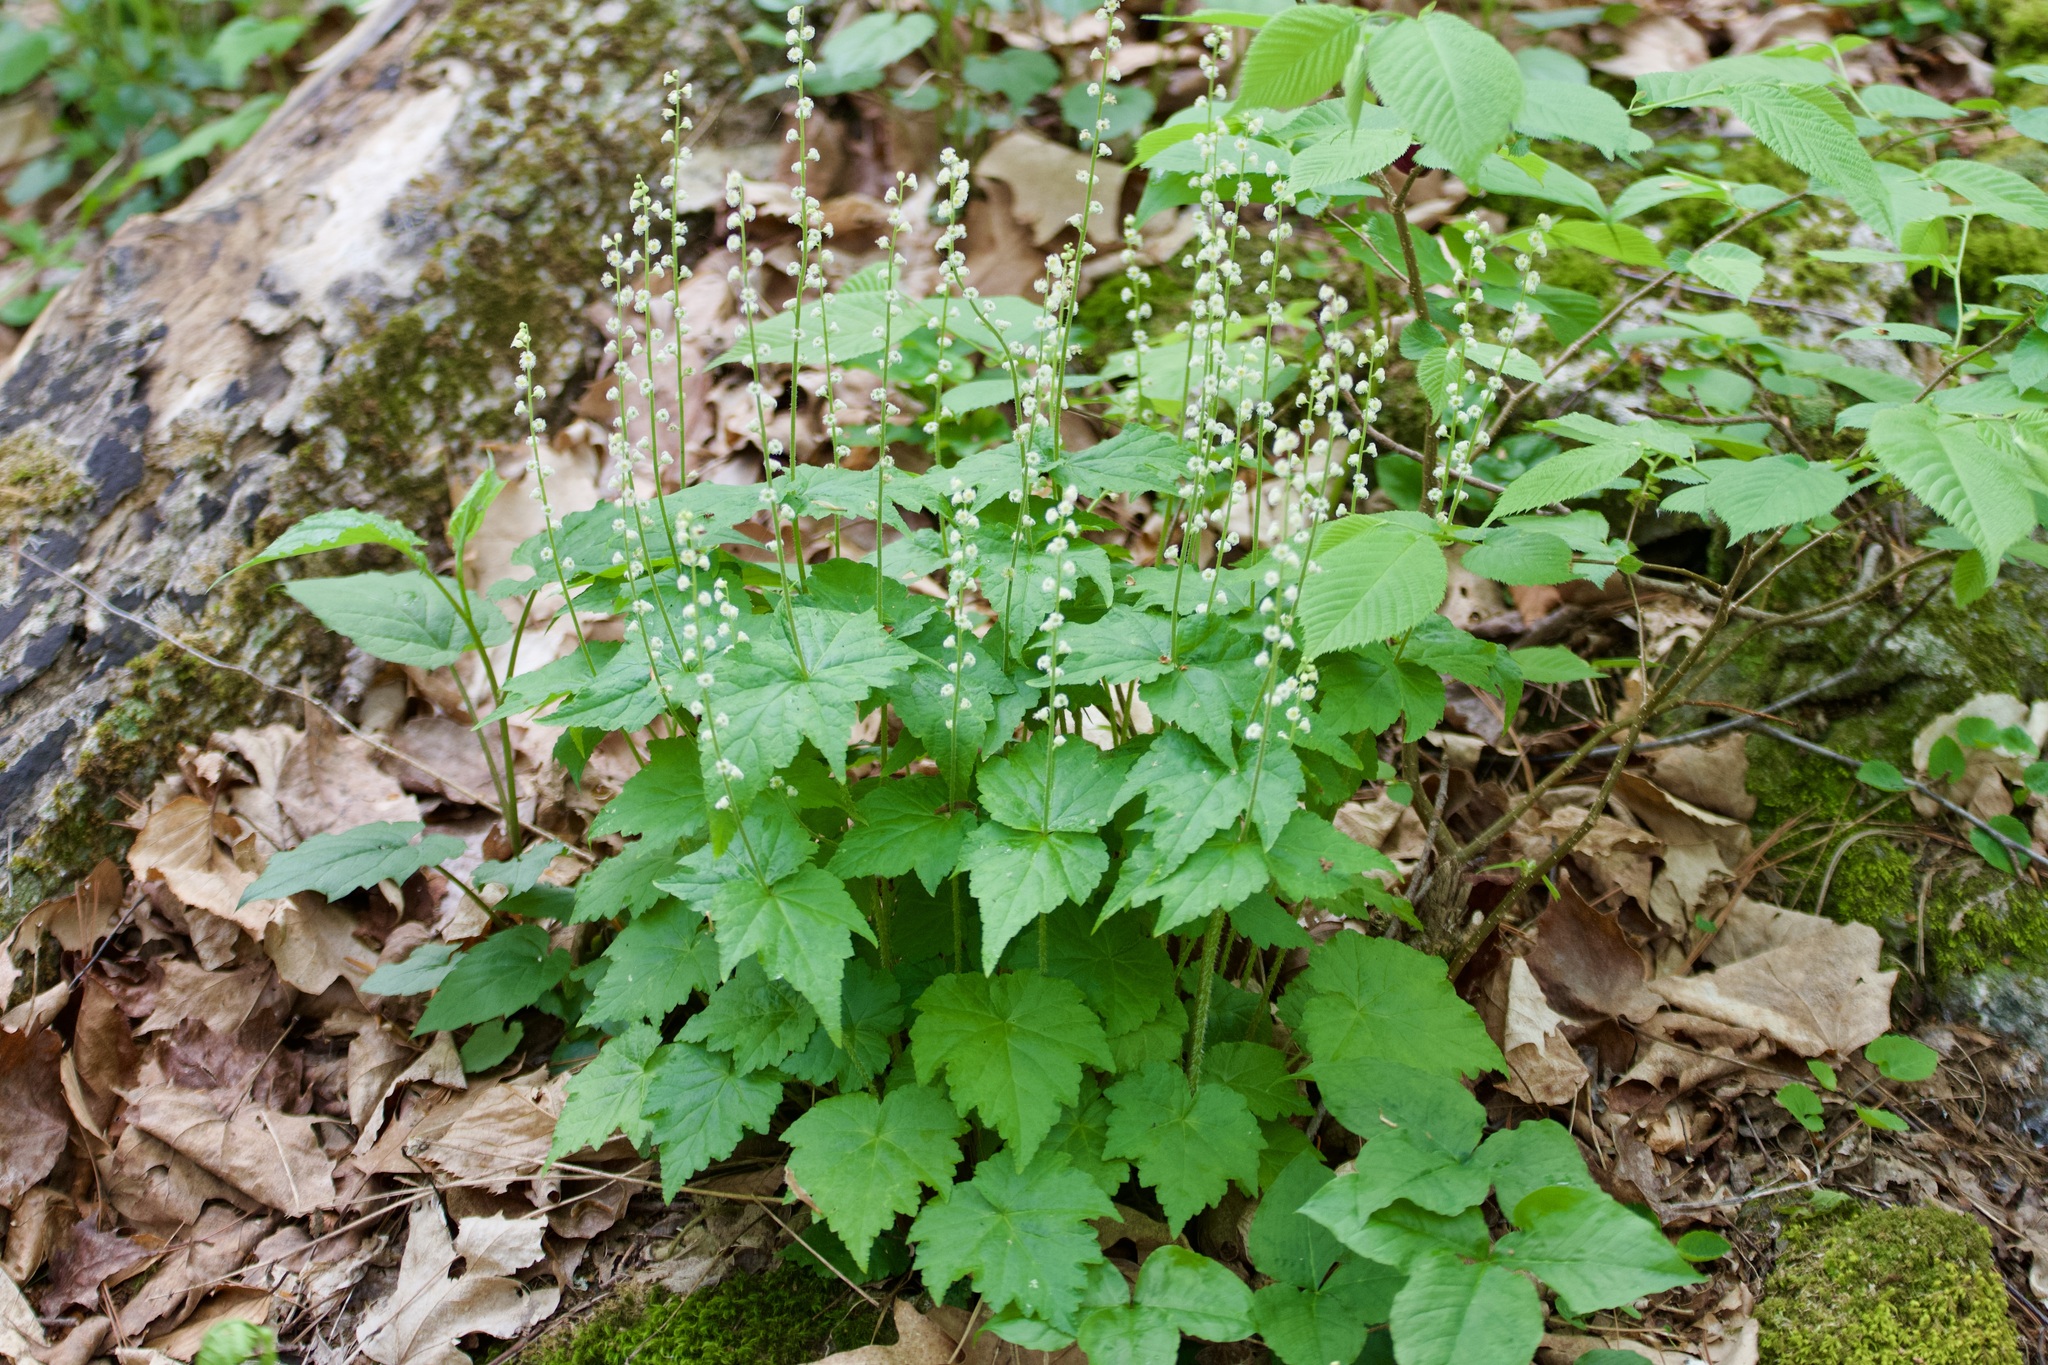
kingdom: Plantae
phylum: Tracheophyta
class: Magnoliopsida
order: Saxifragales
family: Saxifragaceae
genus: Mitella
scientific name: Mitella diphylla
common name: Coolwort
